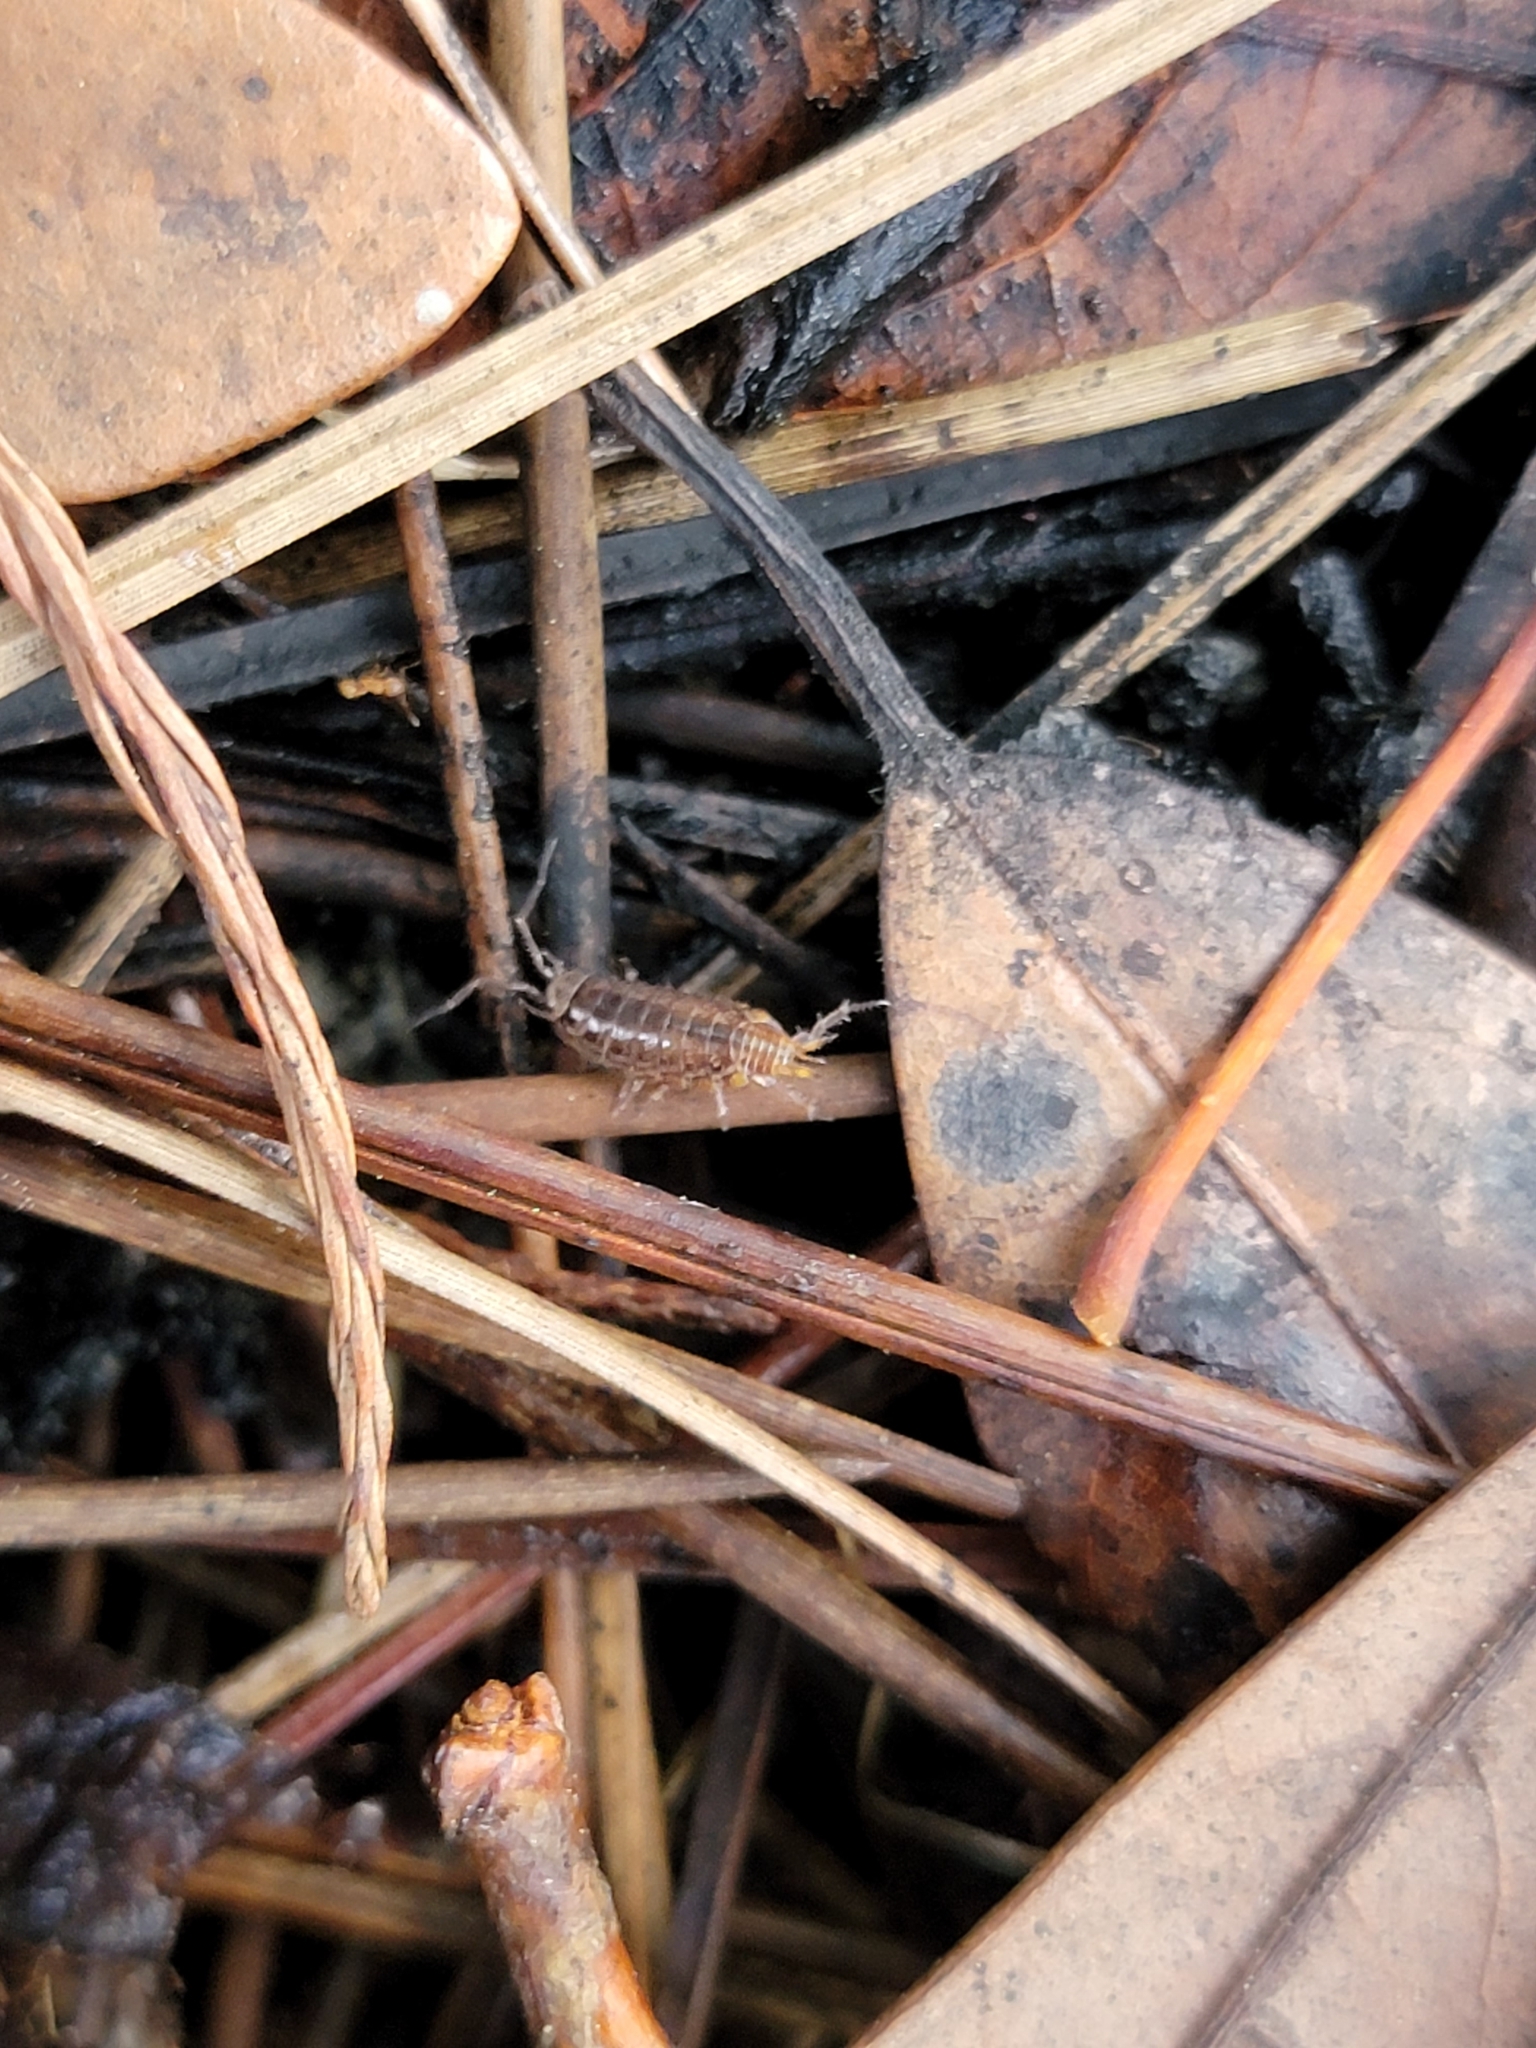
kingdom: Animalia
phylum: Arthropoda
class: Malacostraca
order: Isopoda
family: Philosciidae
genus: Atlantoscia
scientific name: Atlantoscia floridana
